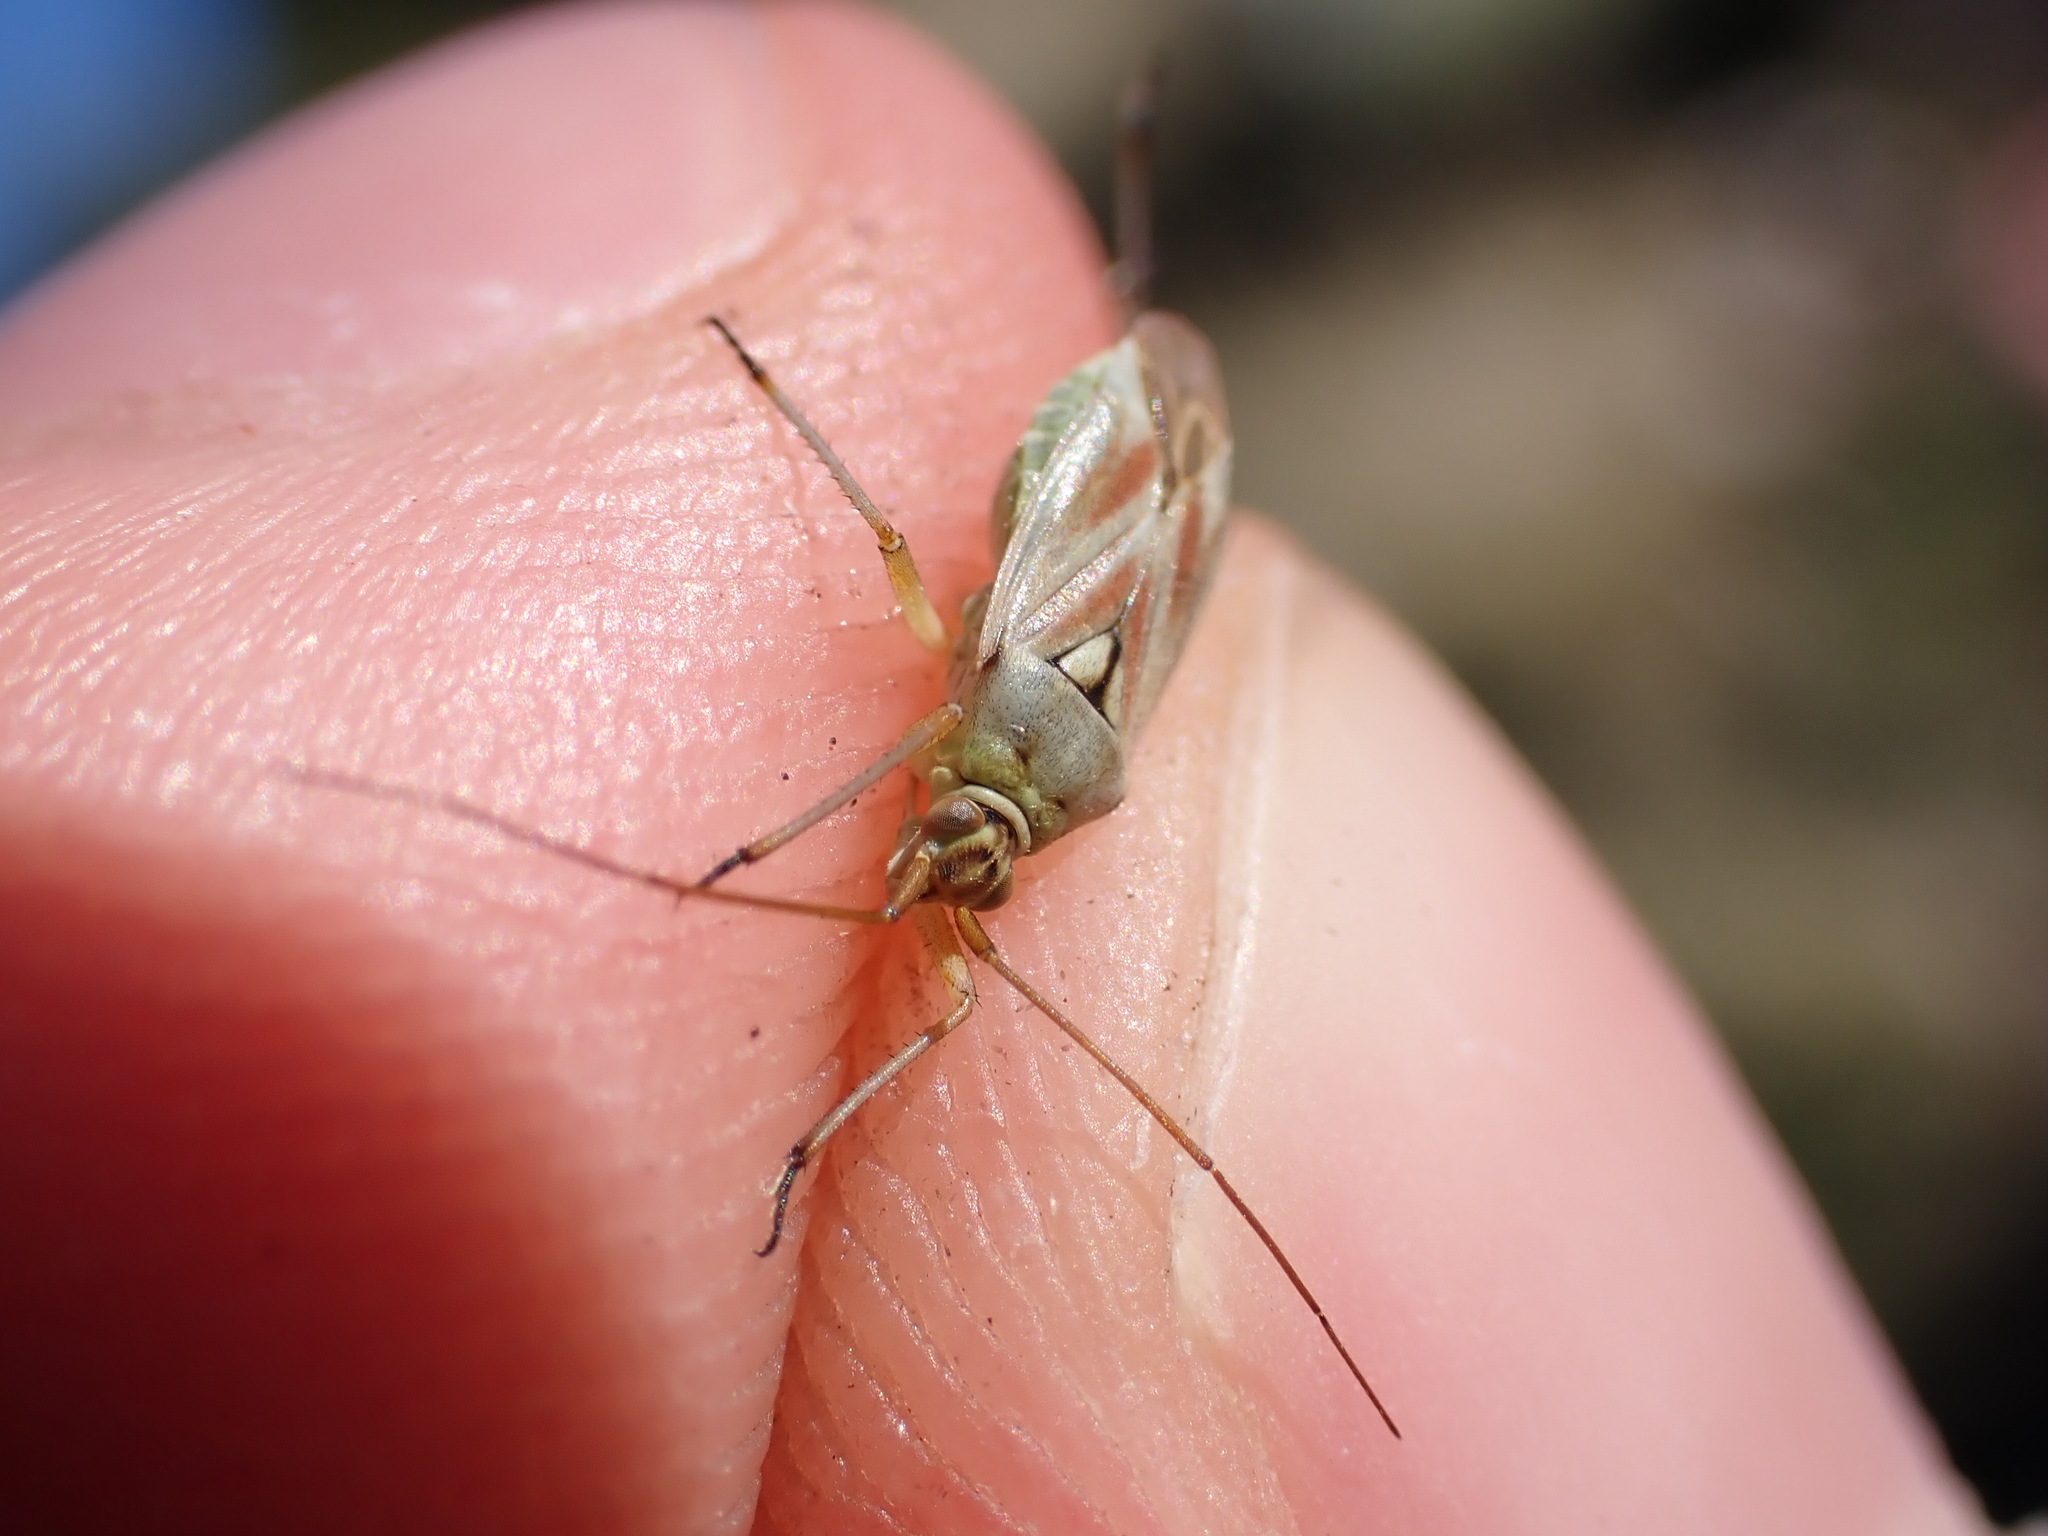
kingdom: Animalia
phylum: Arthropoda
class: Insecta
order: Hemiptera
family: Miridae
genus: Calocoris
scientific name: Calocoris roseomaculatus
